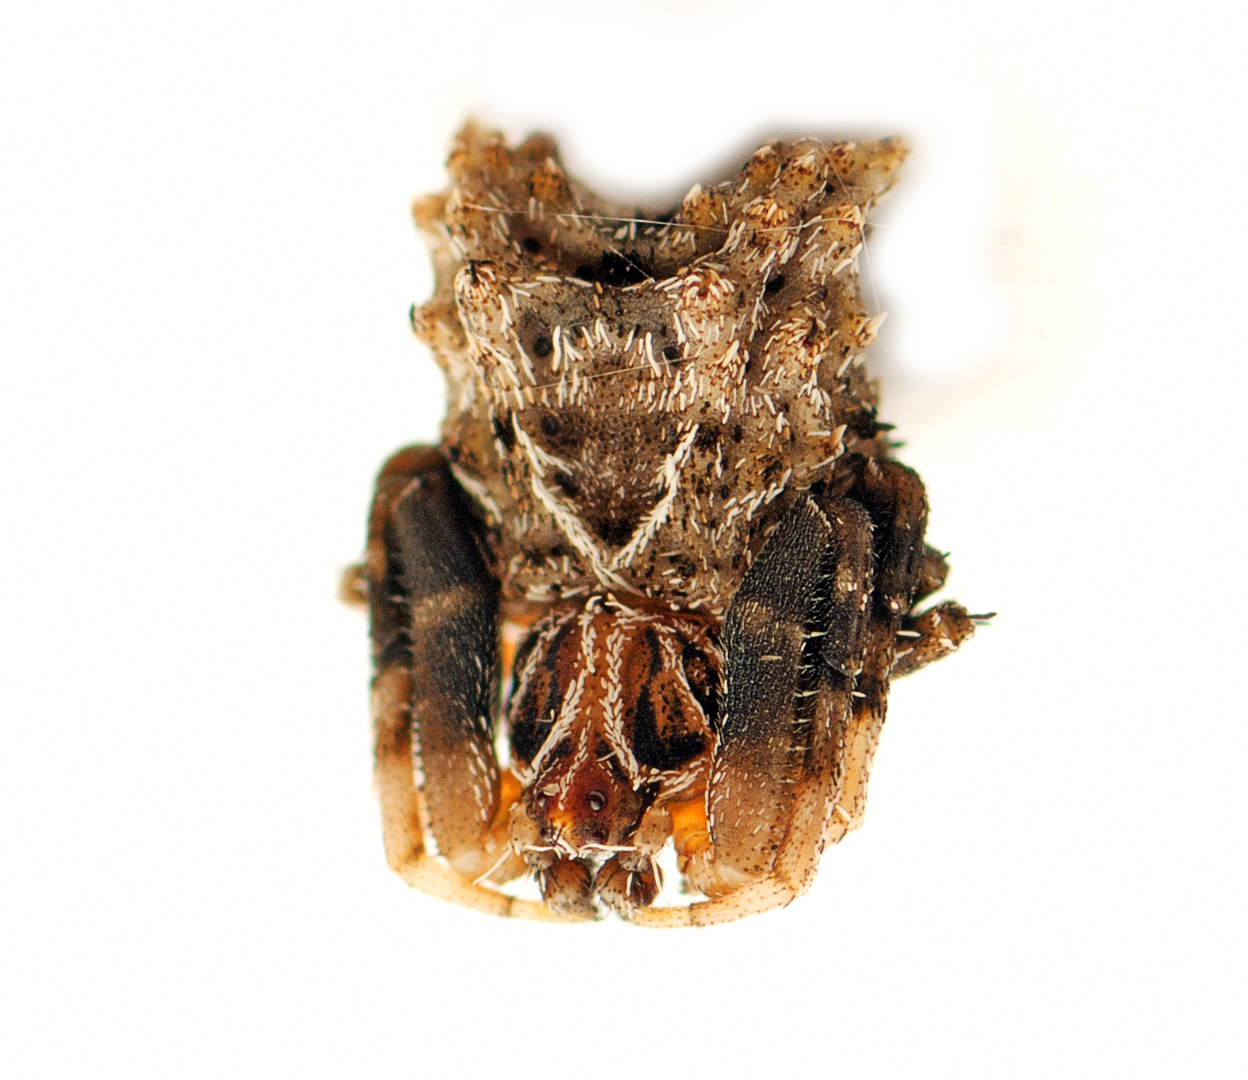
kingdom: Animalia
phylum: Arthropoda
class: Arachnida
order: Araneae
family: Araneidae
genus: Celaenia
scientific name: Celaenia calotoides
